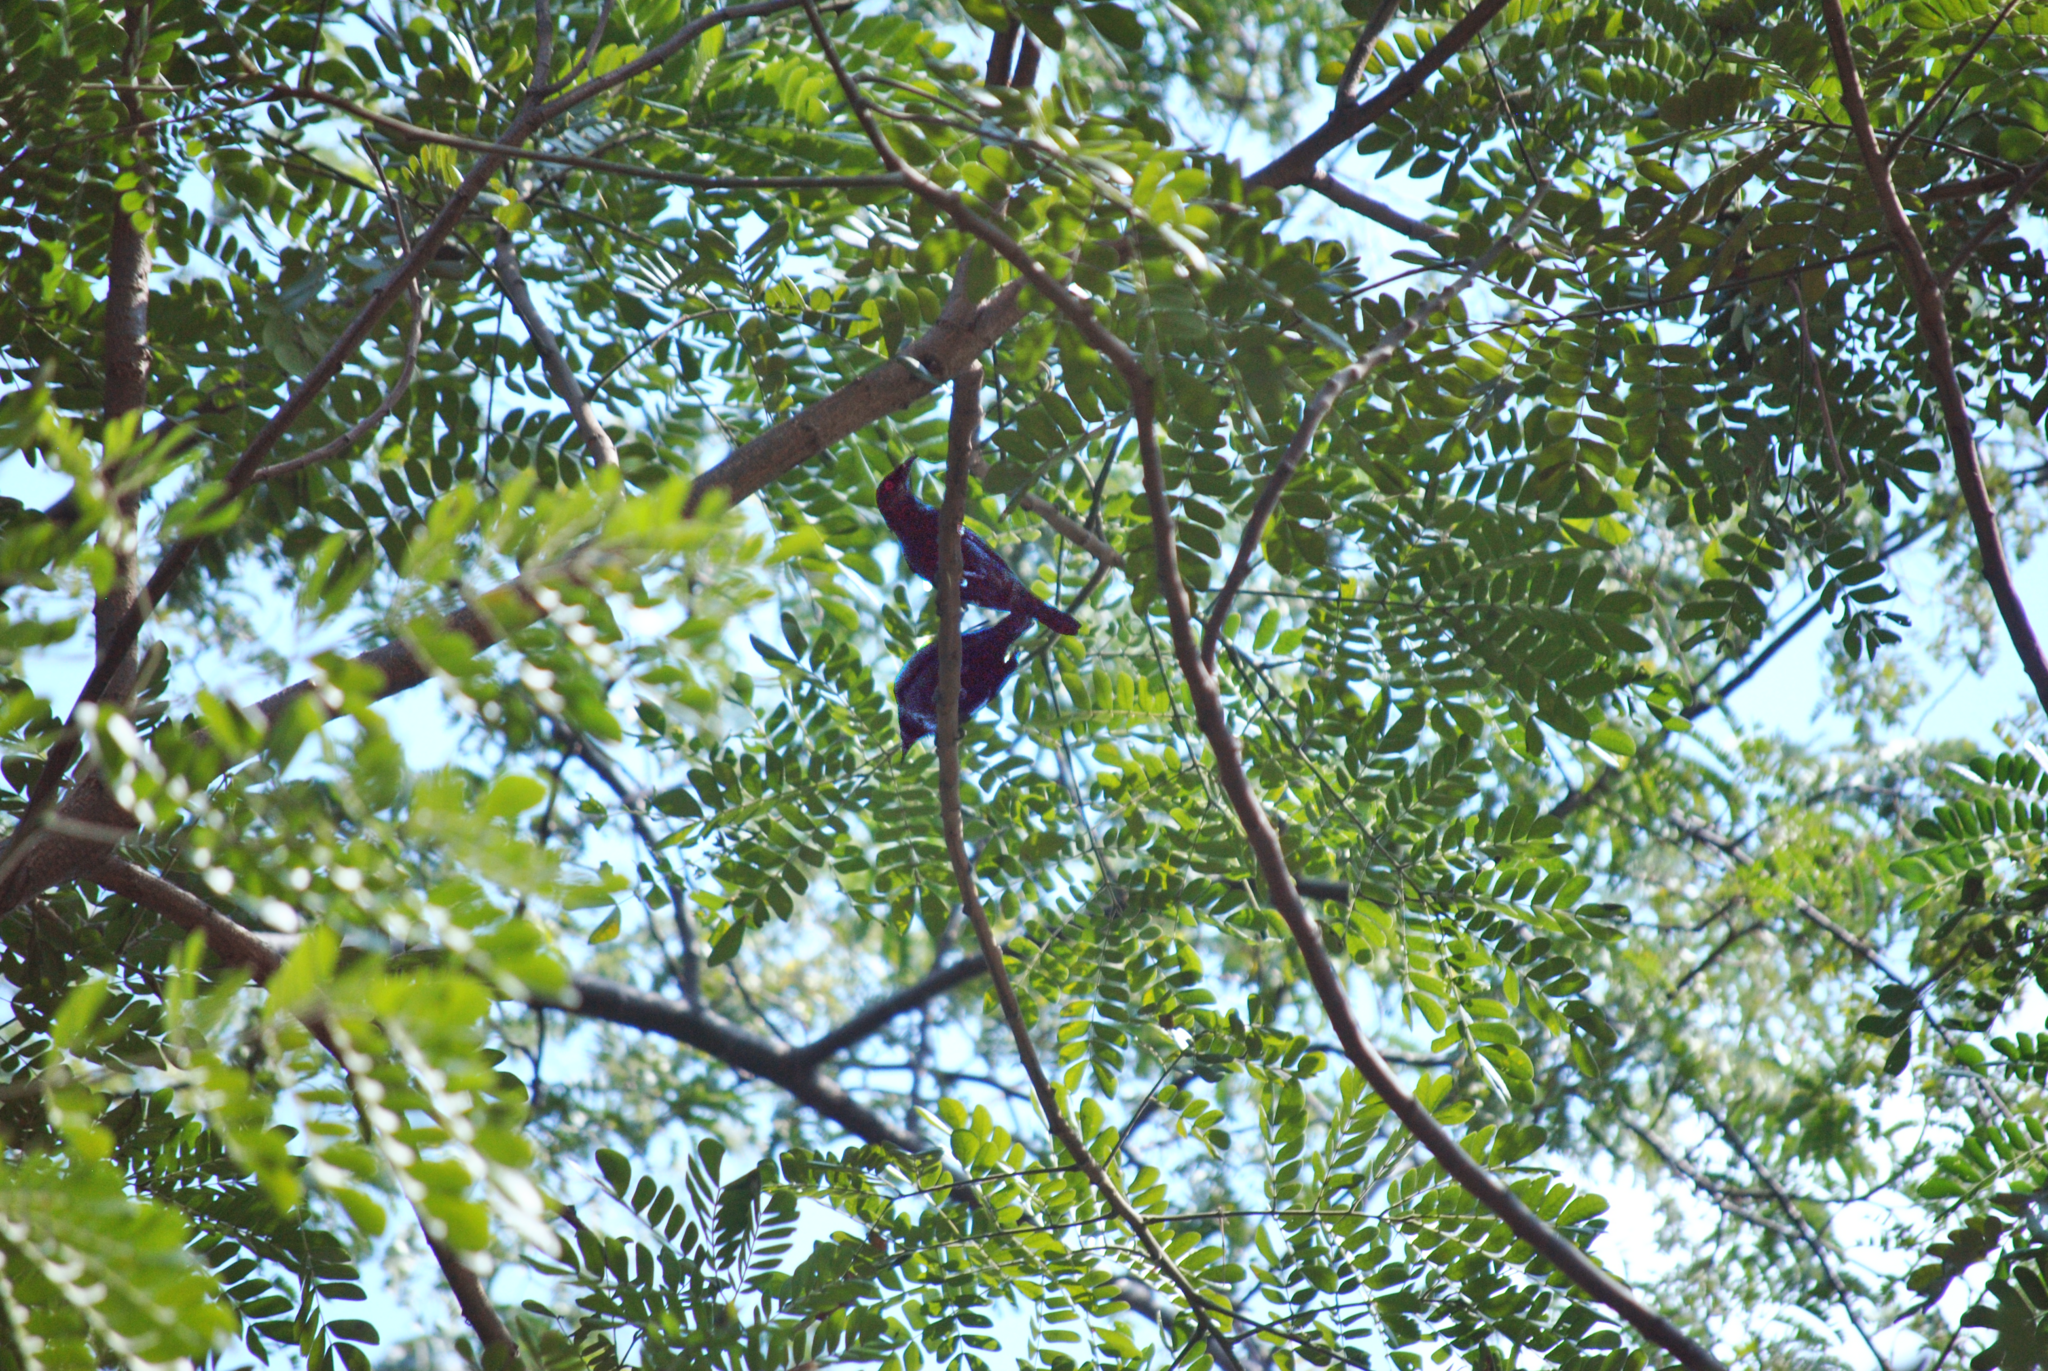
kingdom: Animalia
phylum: Chordata
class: Aves
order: Passeriformes
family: Sturnidae
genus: Aplonis
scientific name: Aplonis panayensis
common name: Asian glossy starling
